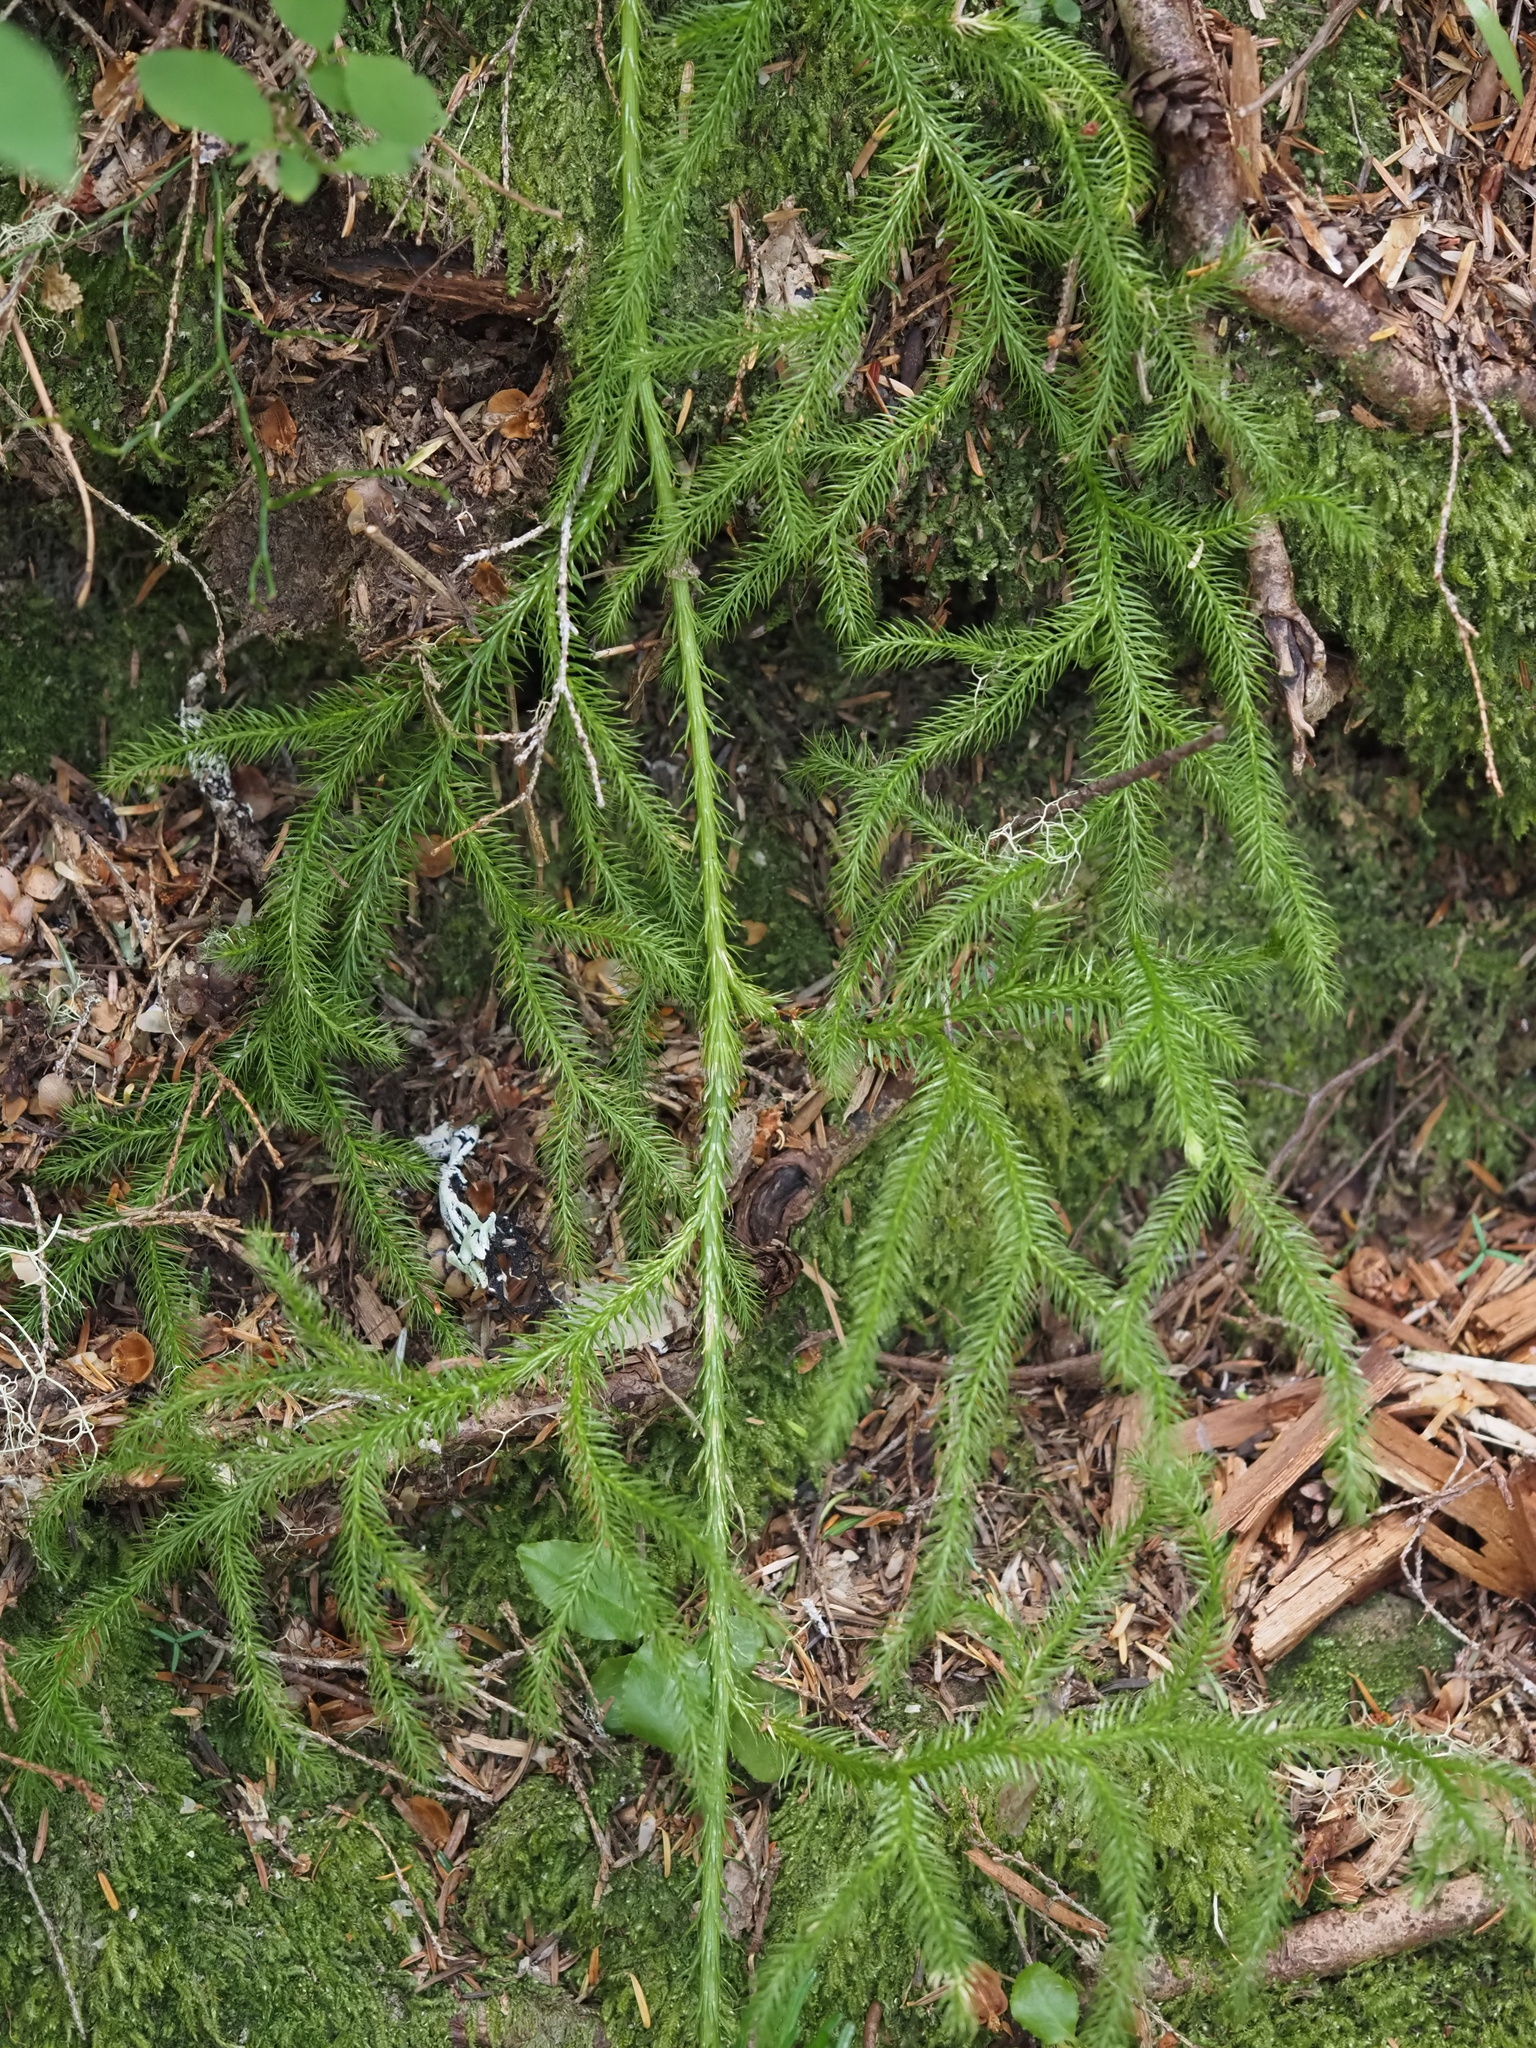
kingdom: Plantae
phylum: Tracheophyta
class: Lycopodiopsida
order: Lycopodiales
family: Lycopodiaceae
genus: Lycopodium
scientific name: Lycopodium clavatum
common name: Stag's-horn clubmoss
